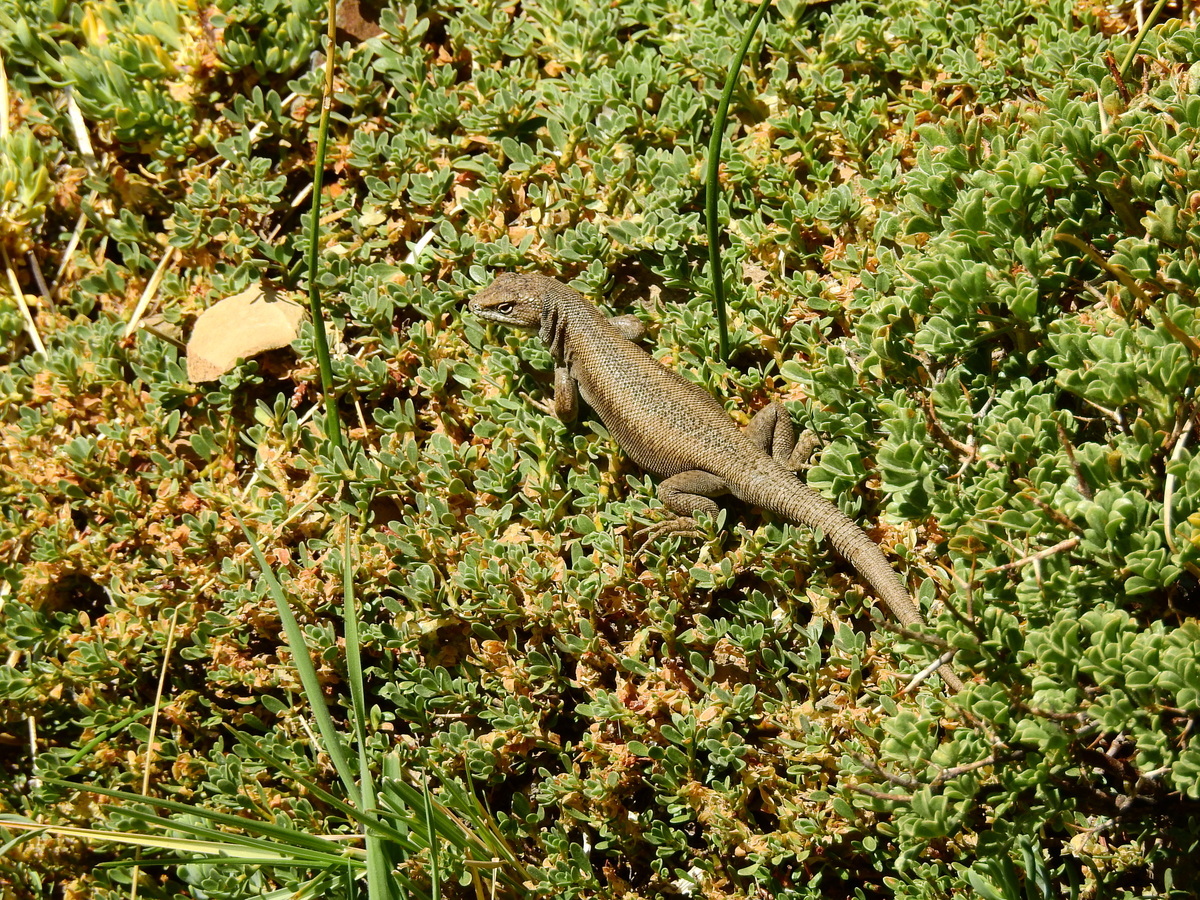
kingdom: Animalia
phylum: Chordata
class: Squamata
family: Liolaemidae
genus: Liolaemus
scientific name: Liolaemus smaug
